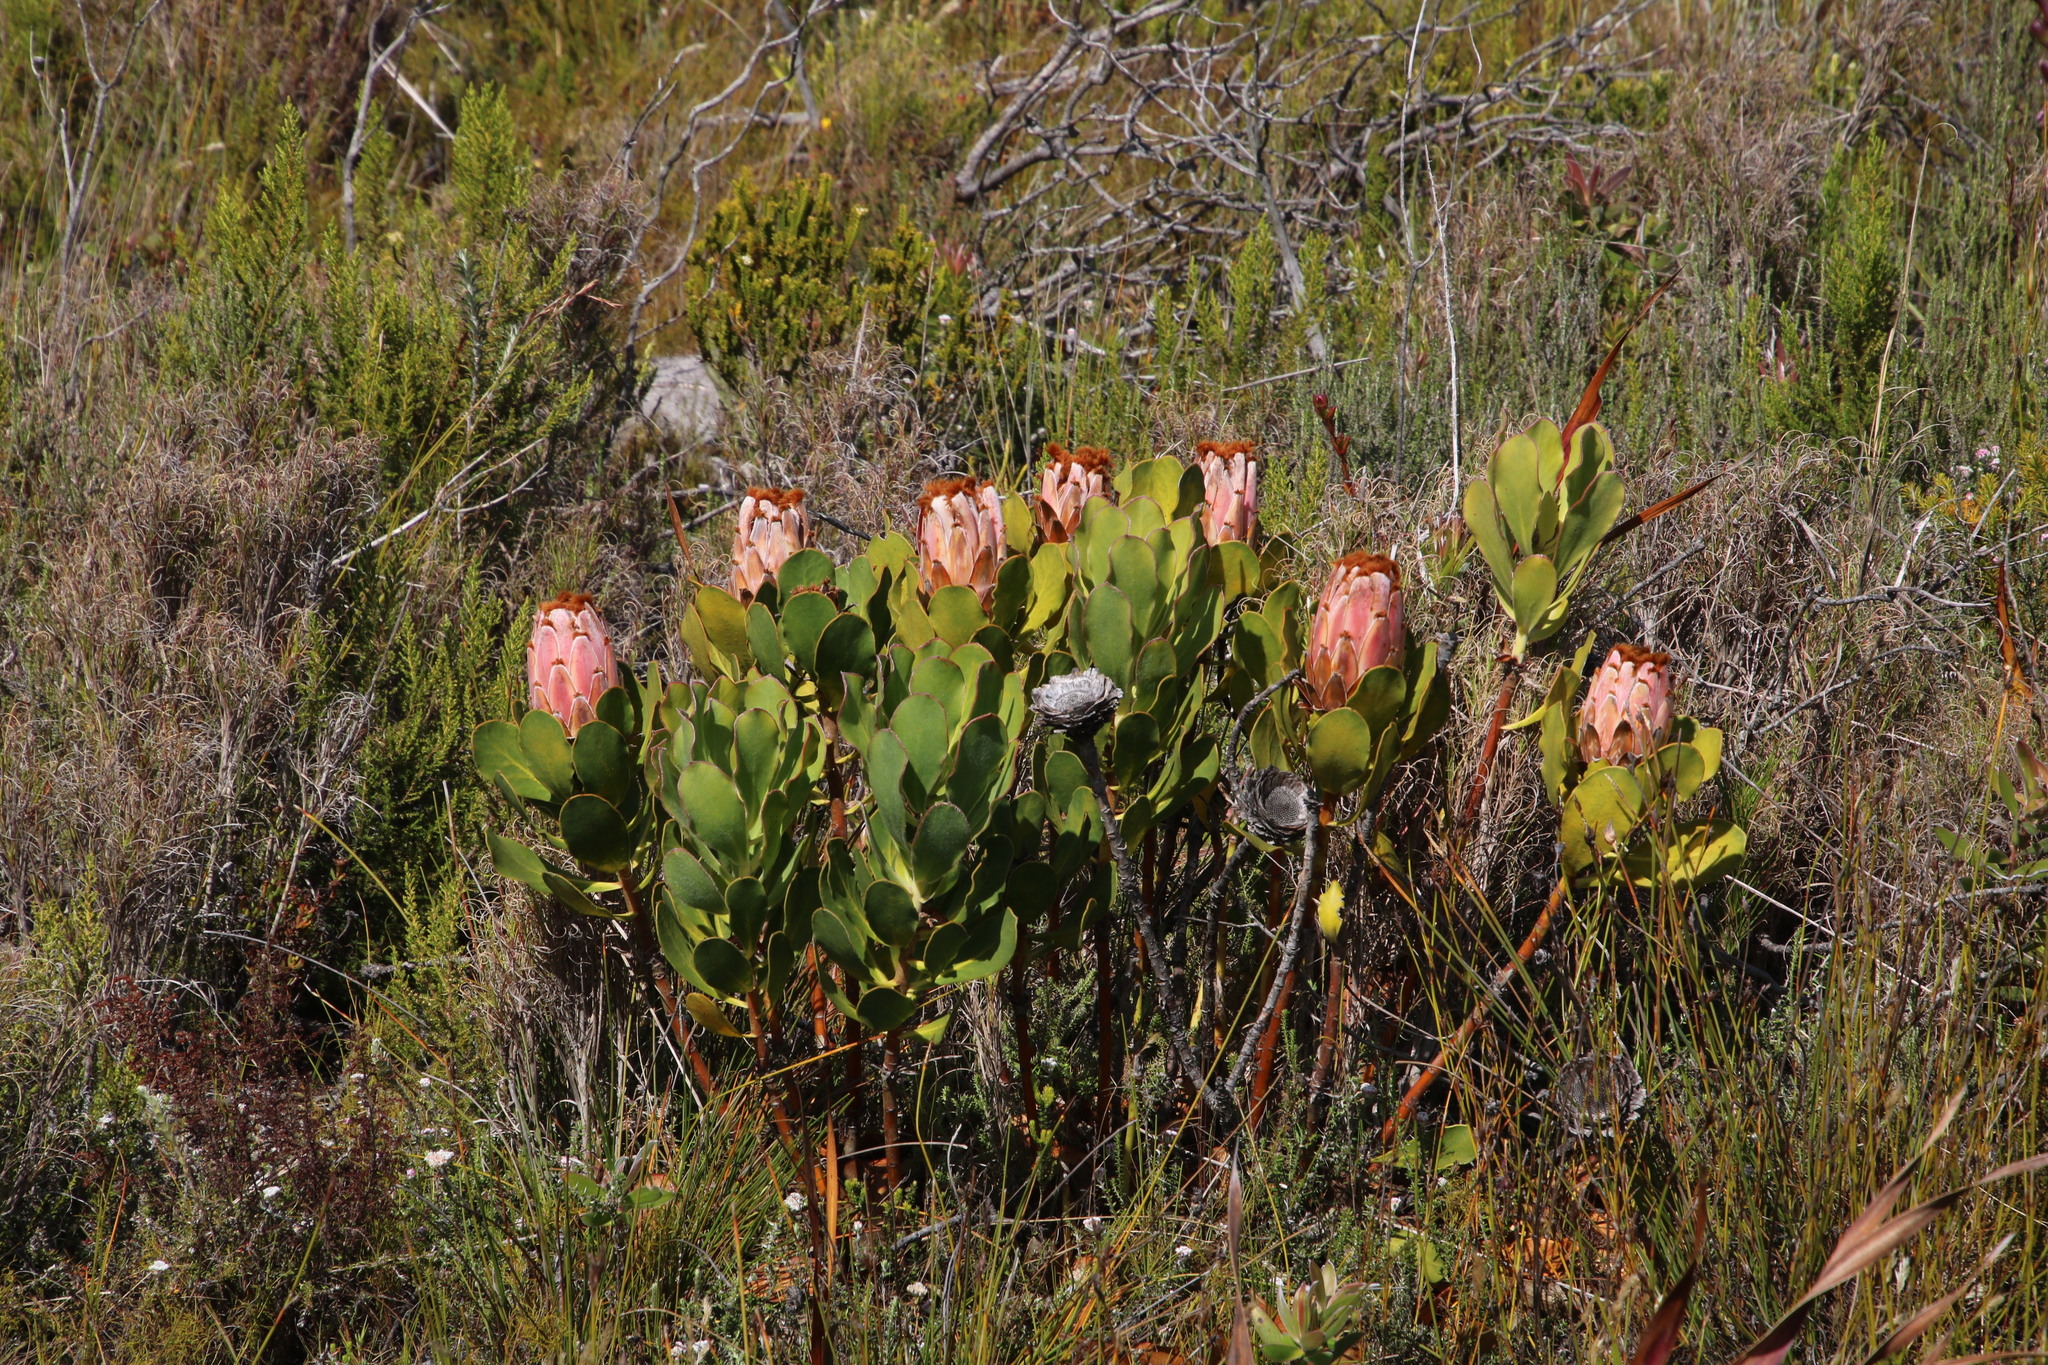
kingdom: Plantae
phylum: Tracheophyta
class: Magnoliopsida
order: Proteales
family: Proteaceae
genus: Protea
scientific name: Protea speciosa
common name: Brown-beard sugarbush
